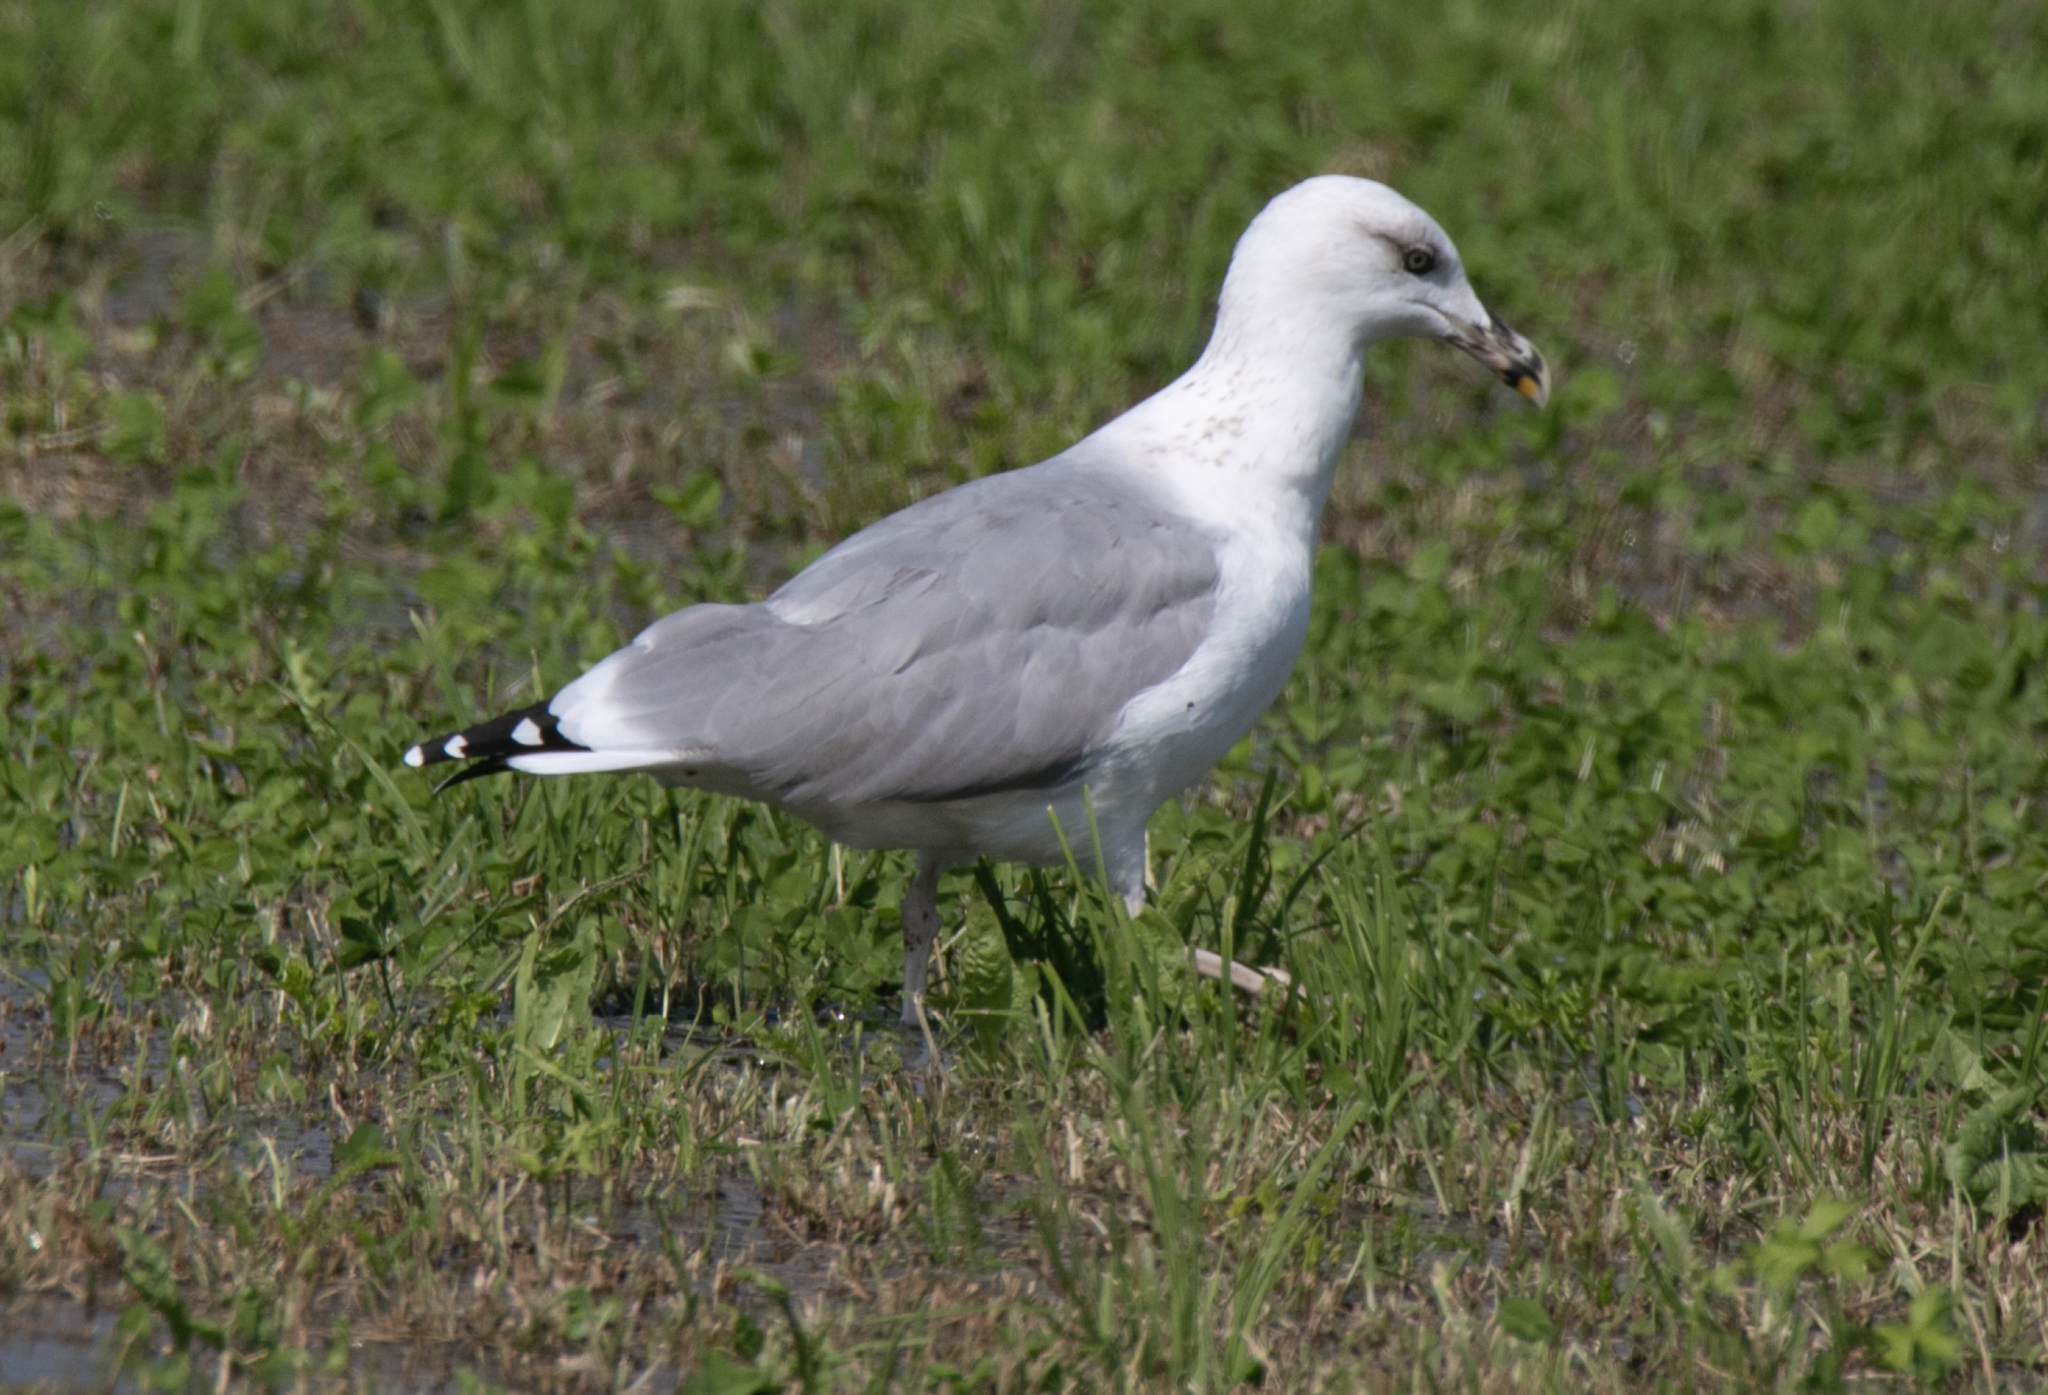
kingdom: Animalia
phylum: Chordata
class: Aves
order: Charadriiformes
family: Laridae
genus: Larus
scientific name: Larus michahellis
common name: Yellow-legged gull
